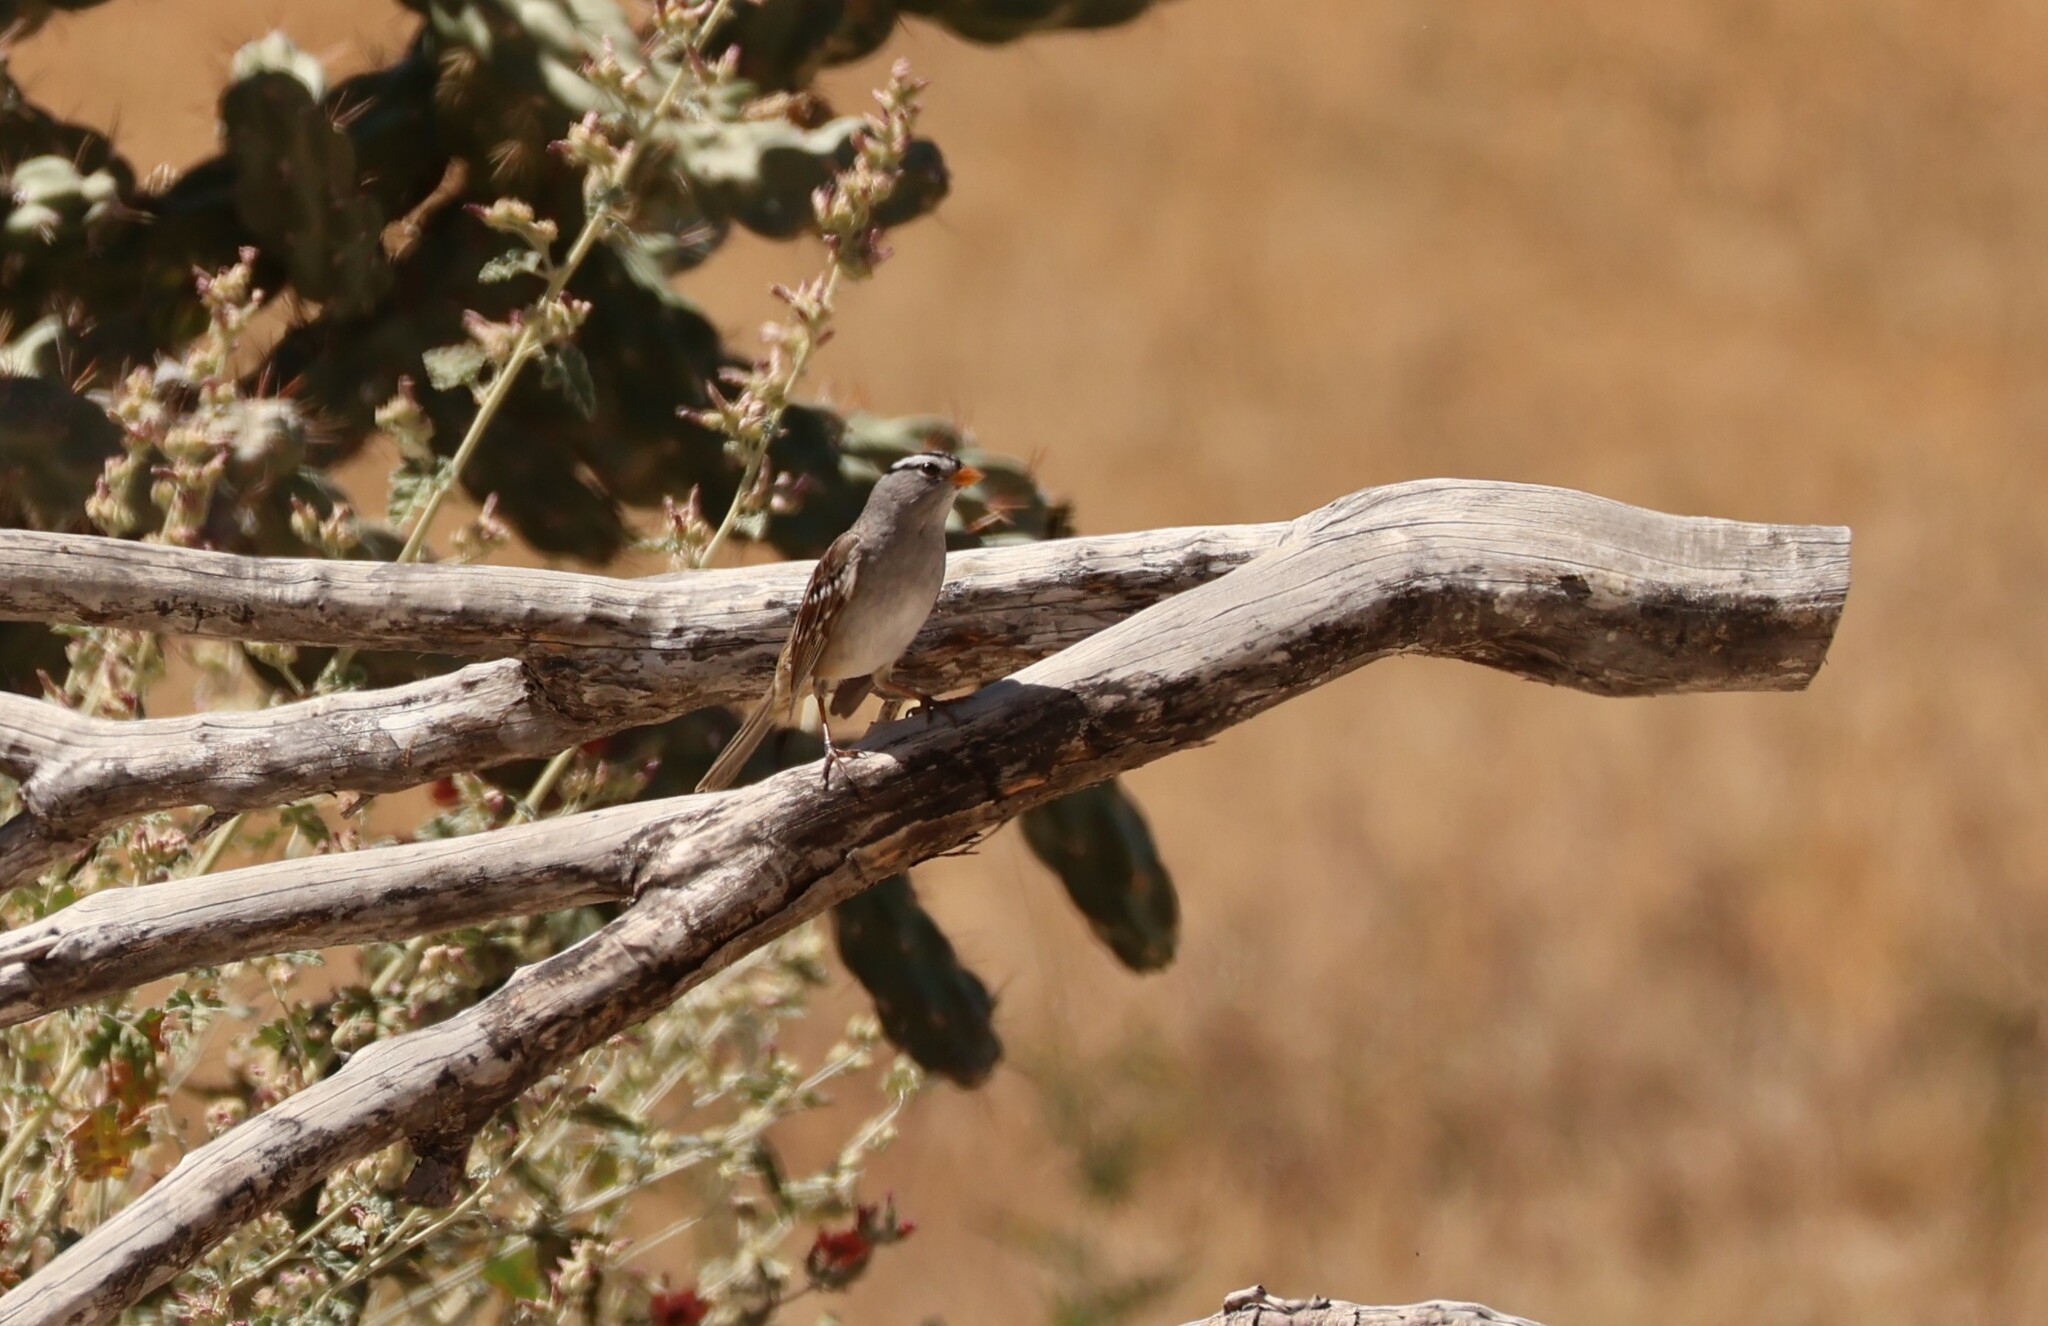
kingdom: Animalia
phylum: Chordata
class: Aves
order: Passeriformes
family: Passerellidae
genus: Zonotrichia
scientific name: Zonotrichia leucophrys
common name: White-crowned sparrow
